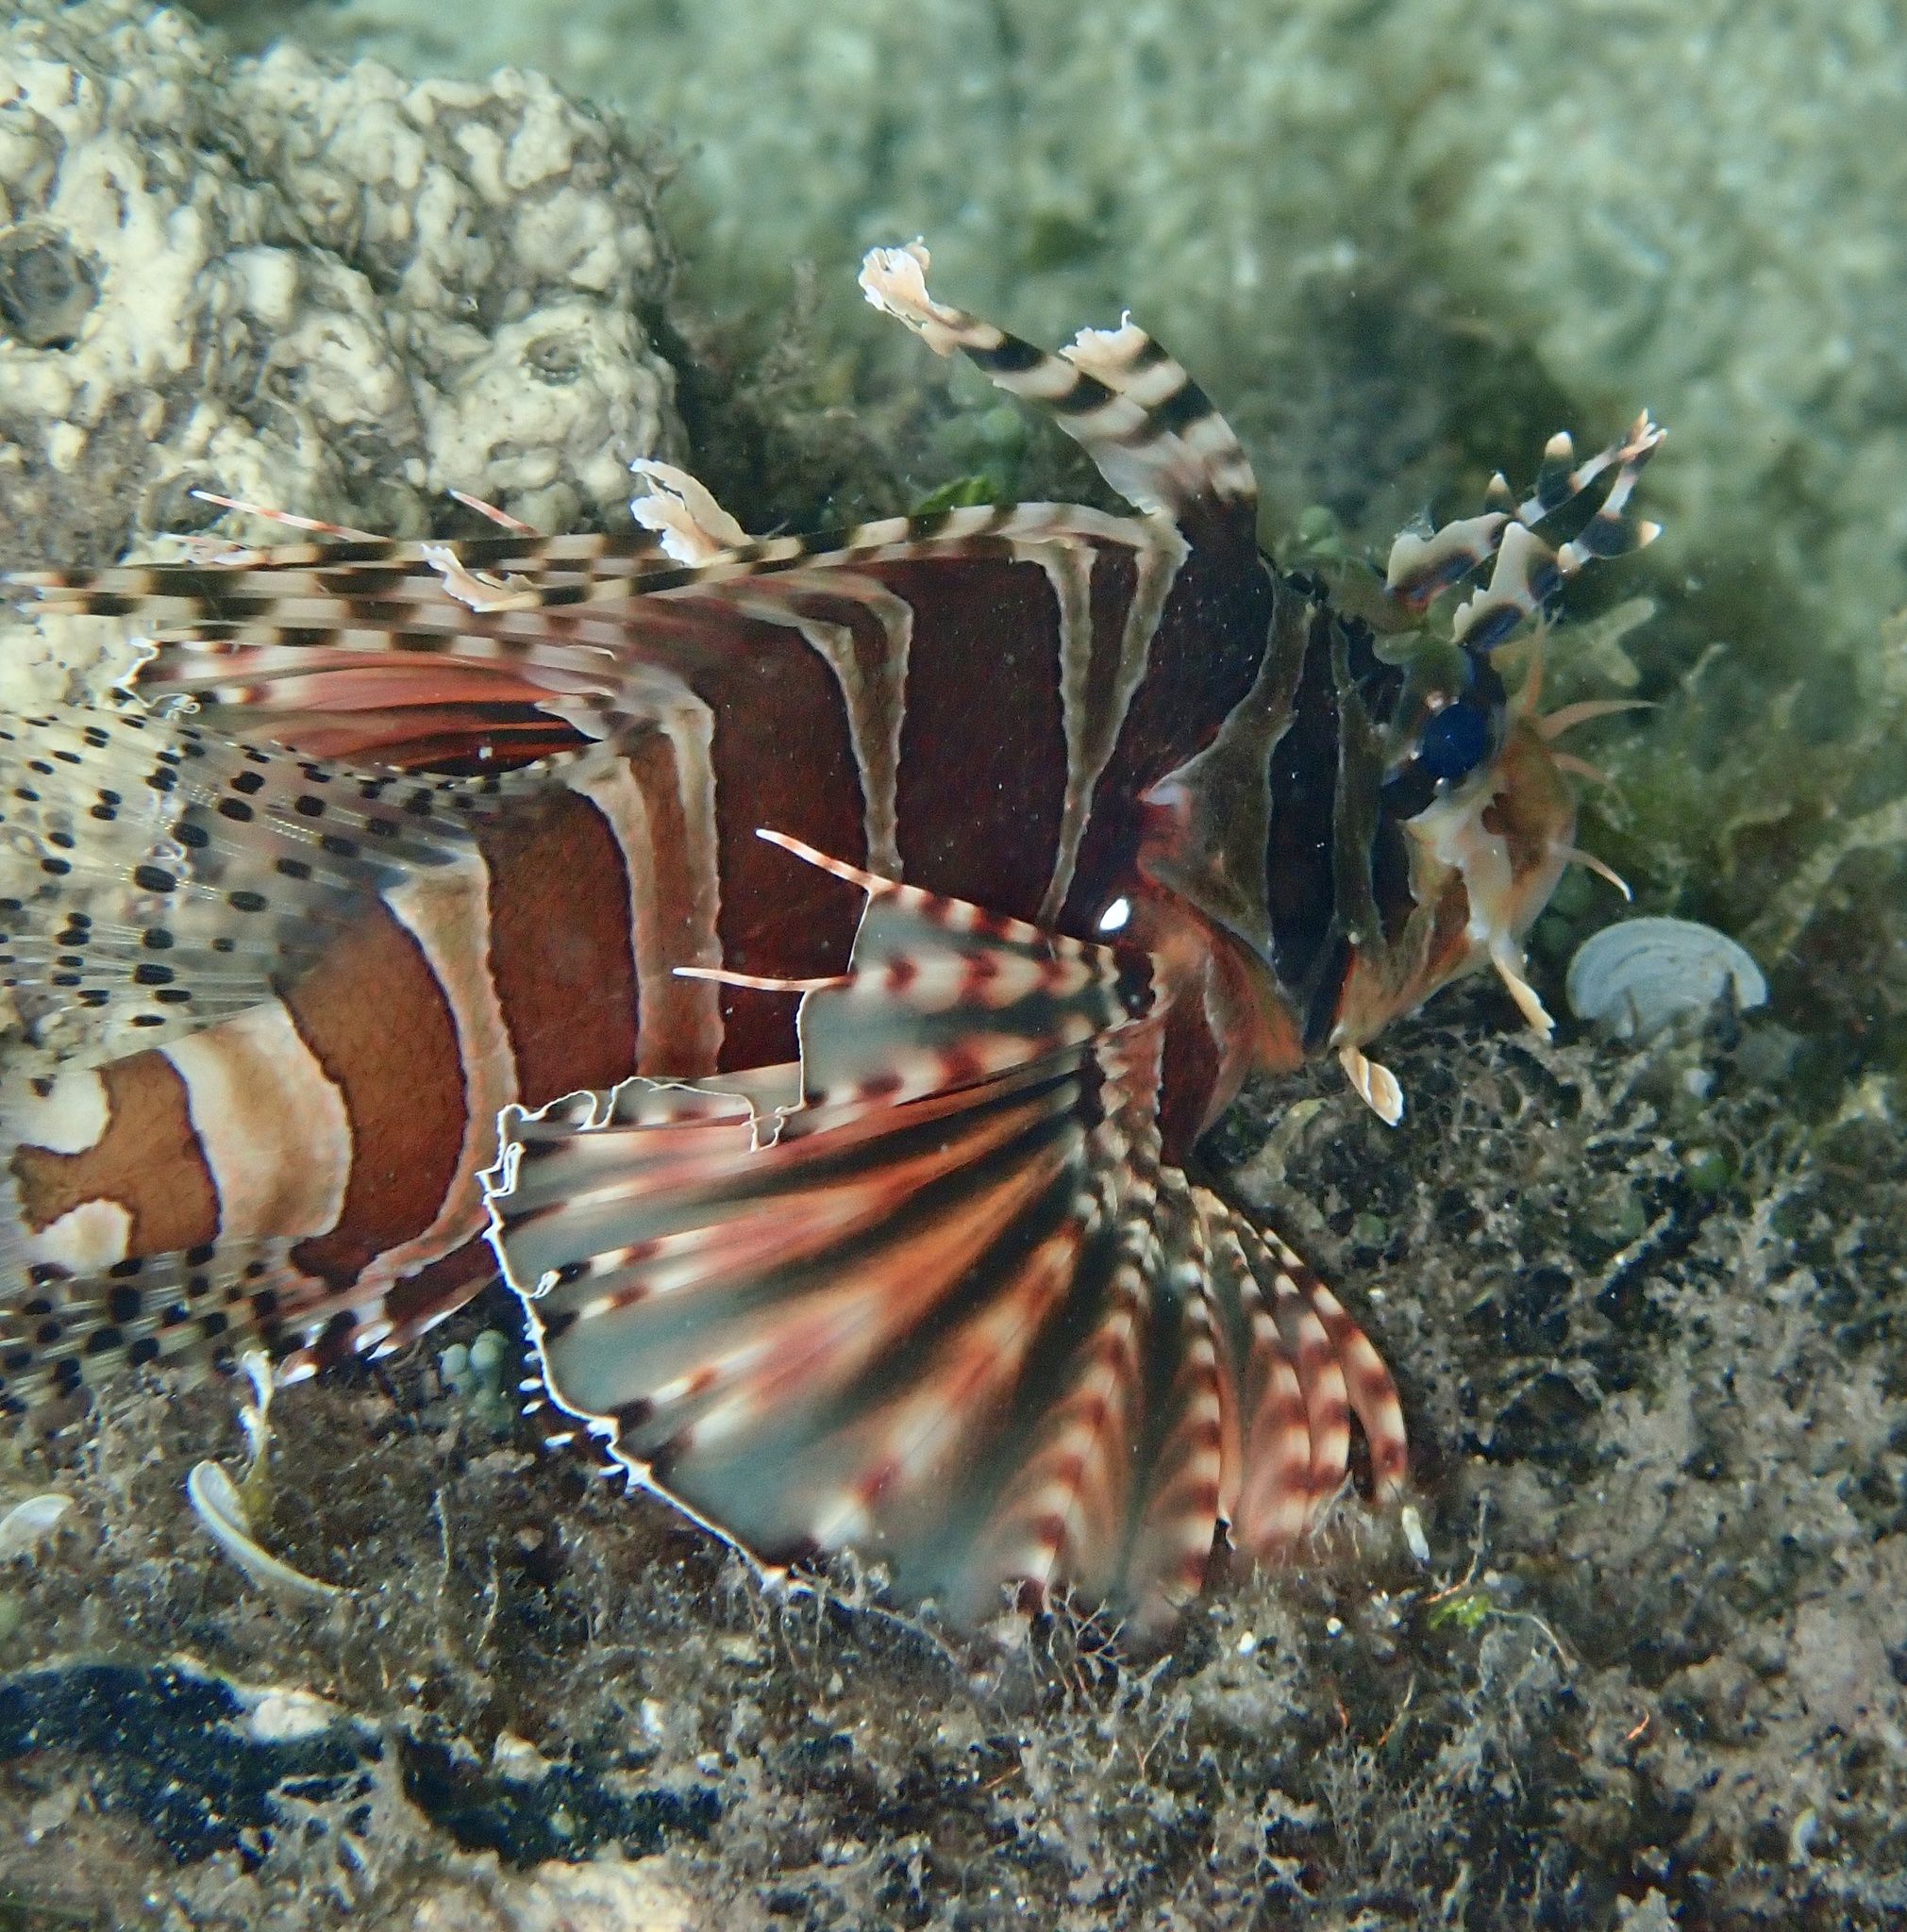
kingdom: Animalia
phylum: Chordata
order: Scorpaeniformes
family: Scorpaenidae
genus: Dendrochirus
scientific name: Dendrochirus zebra
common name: Zebra lionfish
